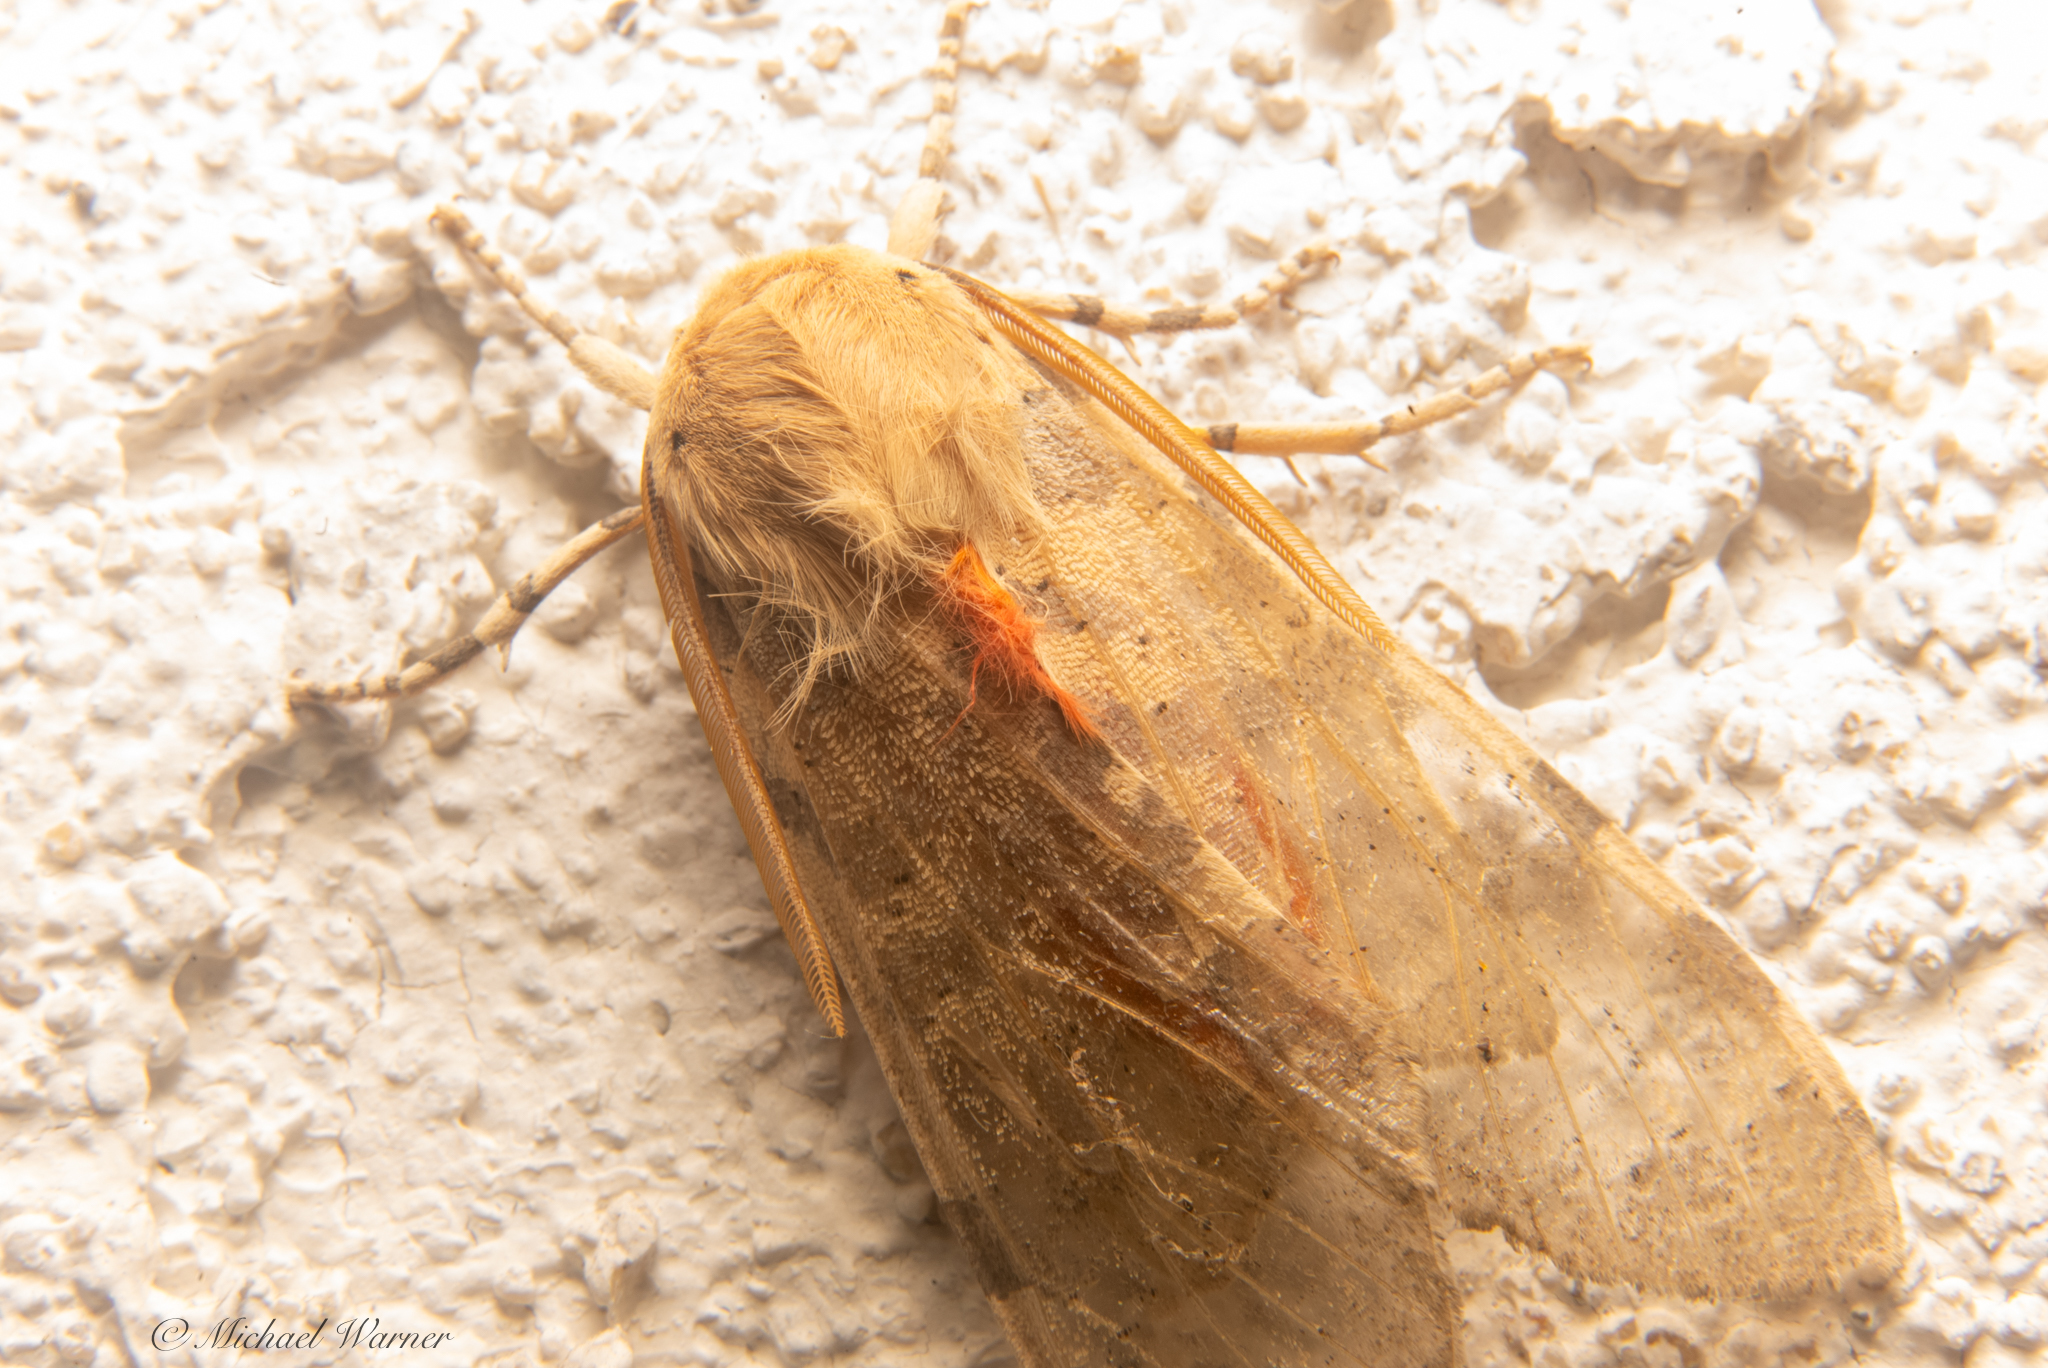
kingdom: Animalia
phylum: Arthropoda
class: Insecta
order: Lepidoptera
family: Erebidae
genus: Hemihyalea
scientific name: Hemihyalea edwardsii
